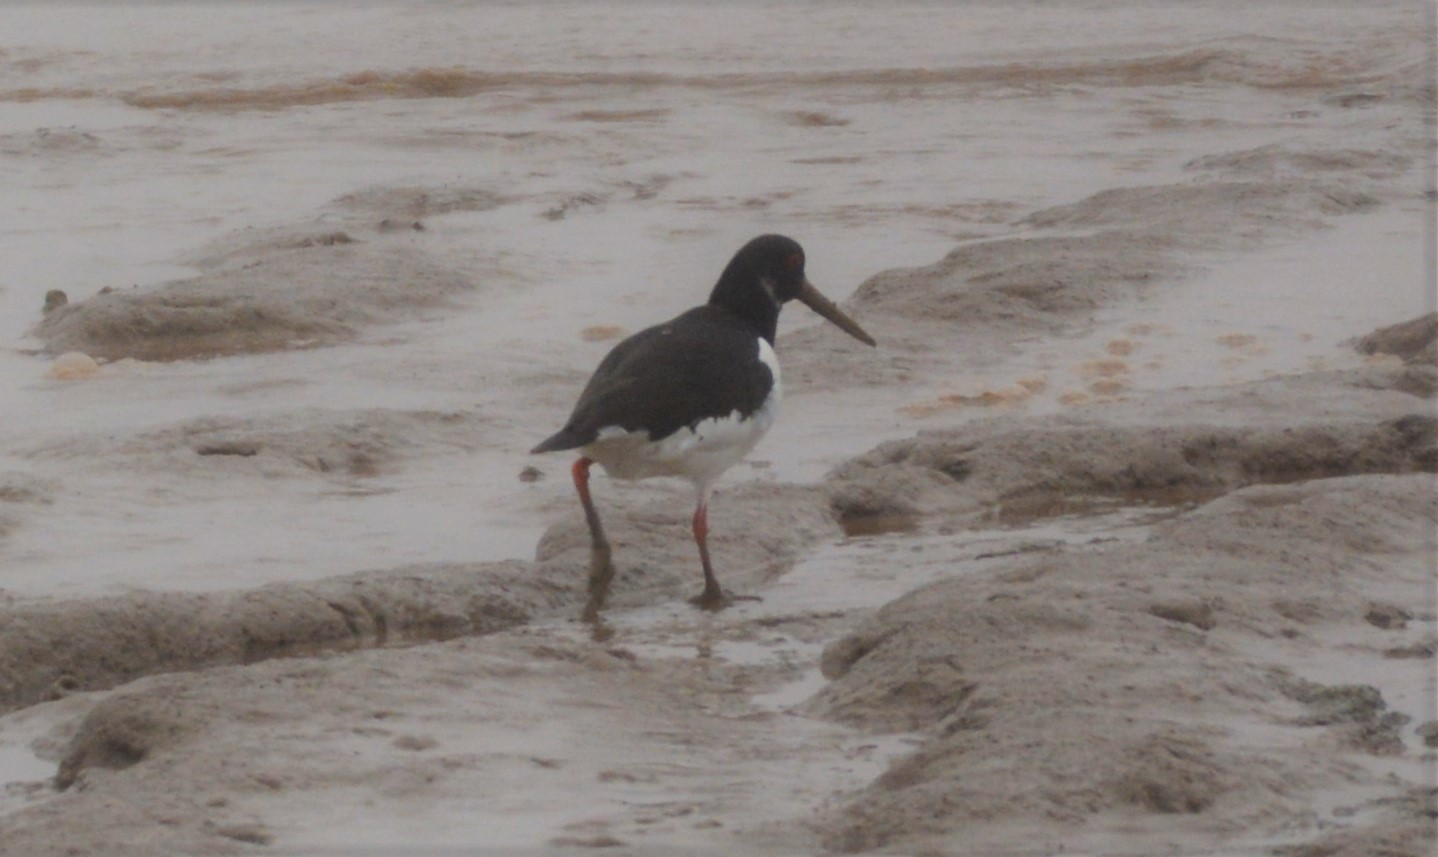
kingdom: Animalia
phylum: Chordata
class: Aves
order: Charadriiformes
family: Haematopodidae
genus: Haematopus
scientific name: Haematopus ostralegus
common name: Eurasian oystercatcher
